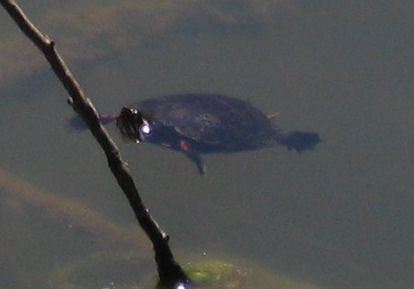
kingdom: Animalia
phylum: Chordata
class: Testudines
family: Emydidae
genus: Chrysemys
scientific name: Chrysemys picta
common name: Painted turtle
